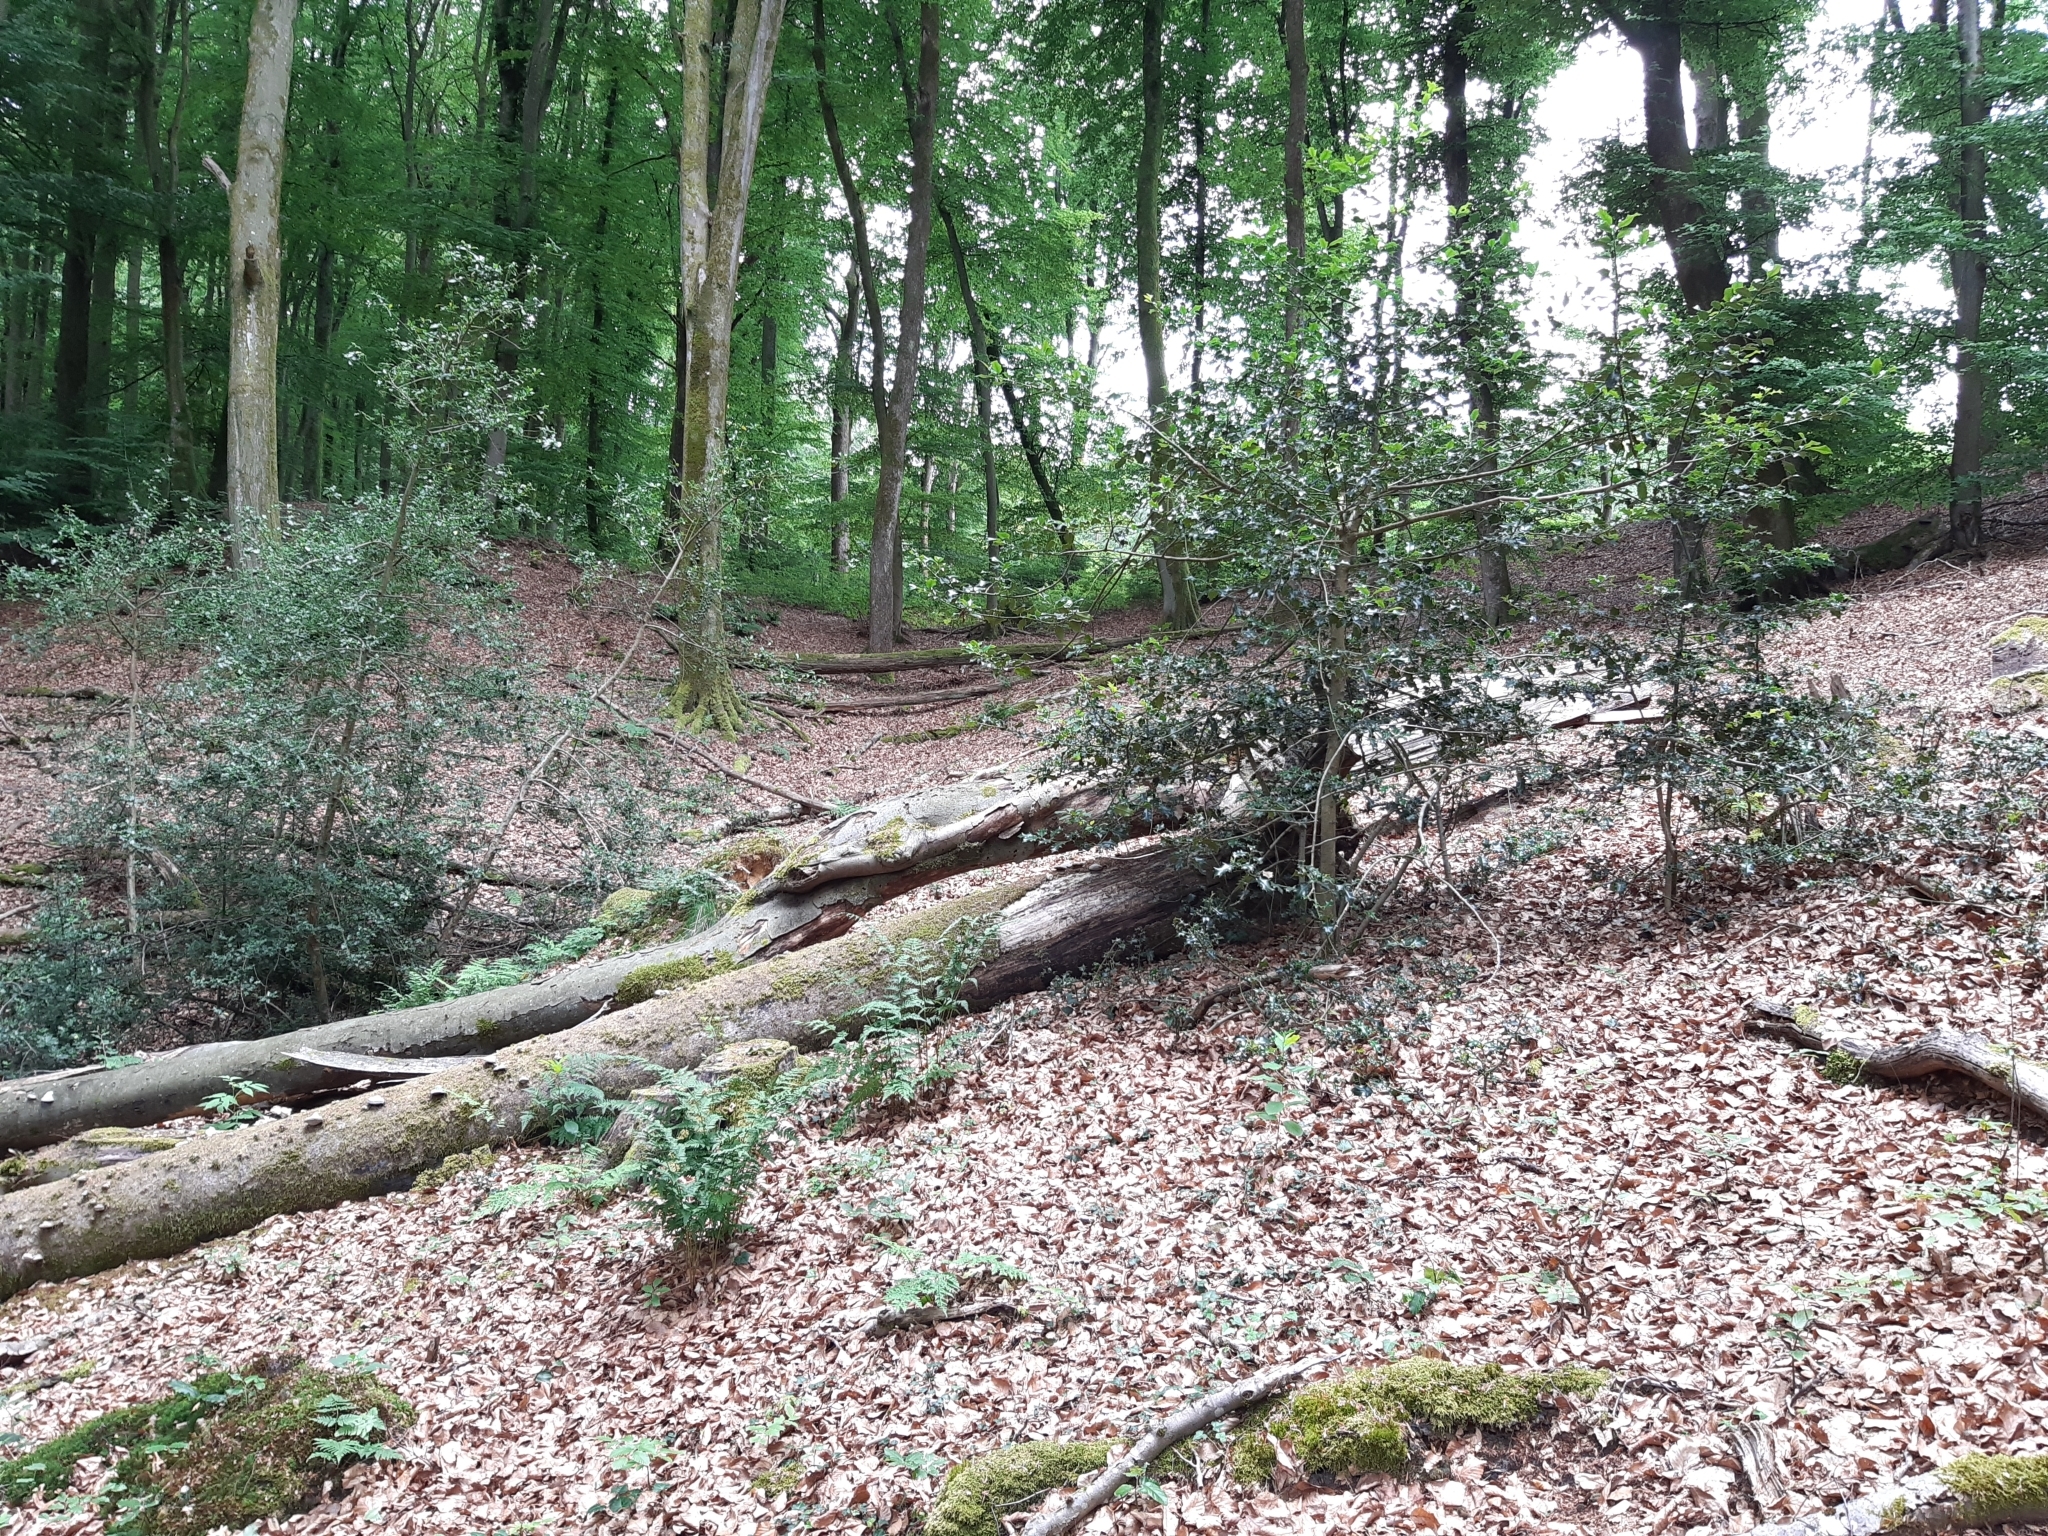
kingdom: Plantae
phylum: Tracheophyta
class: Magnoliopsida
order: Aquifoliales
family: Aquifoliaceae
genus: Ilex
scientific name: Ilex aquifolium
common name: English holly
